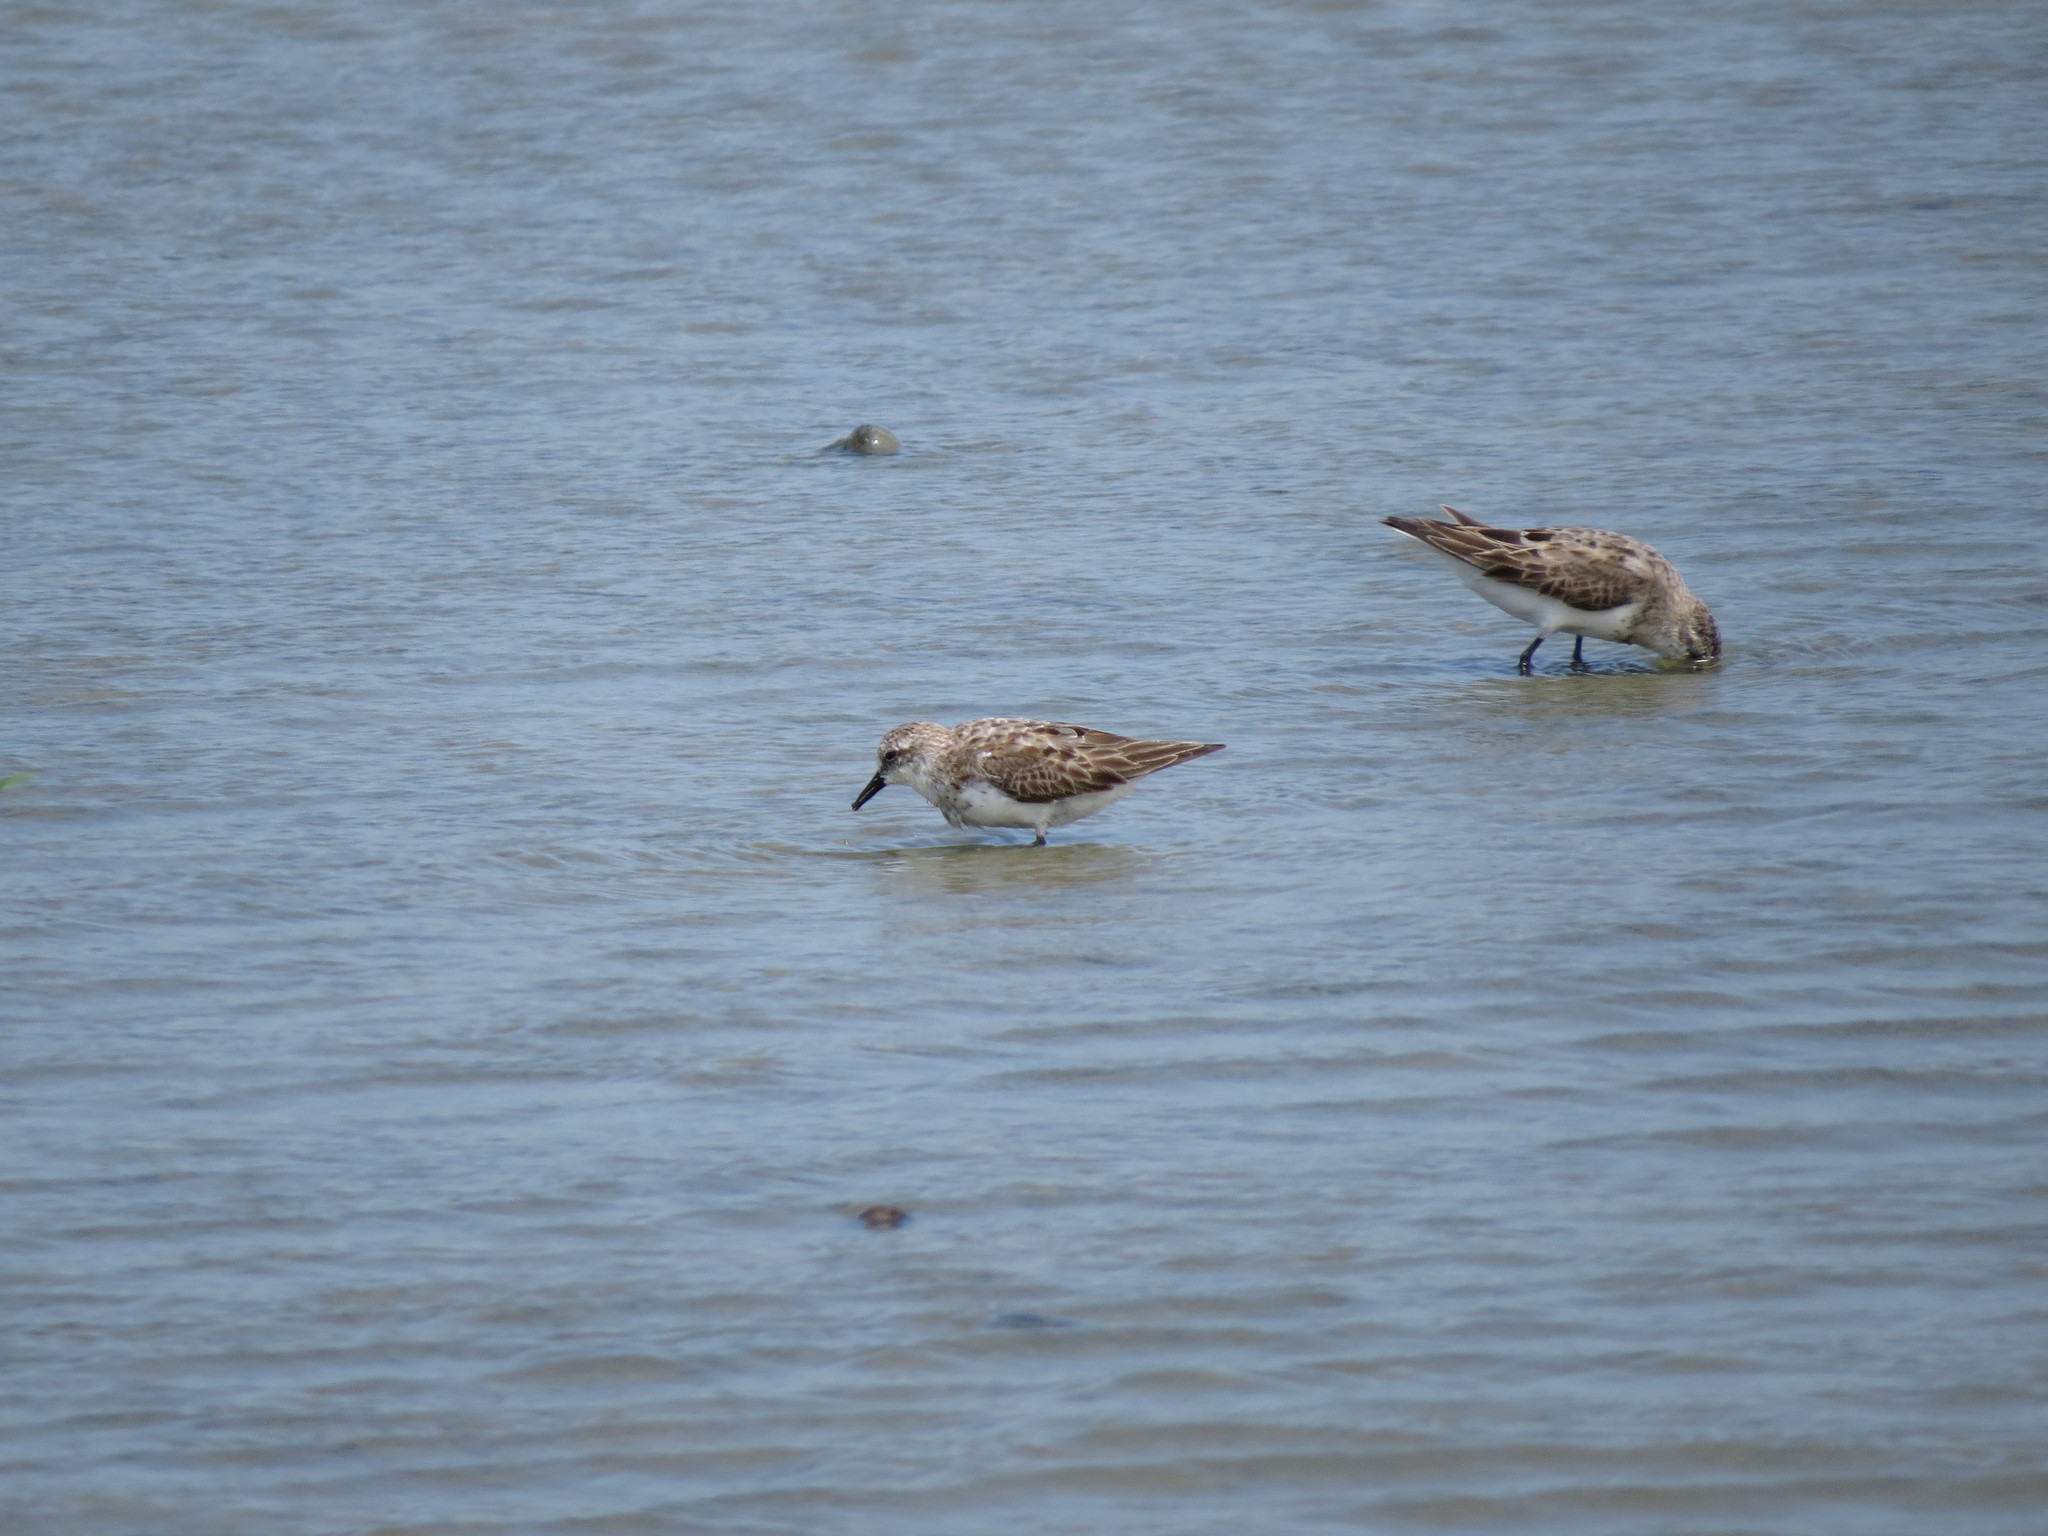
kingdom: Animalia
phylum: Chordata
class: Aves
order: Charadriiformes
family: Scolopacidae
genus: Calidris
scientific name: Calidris ruficollis
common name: Red-necked stint
